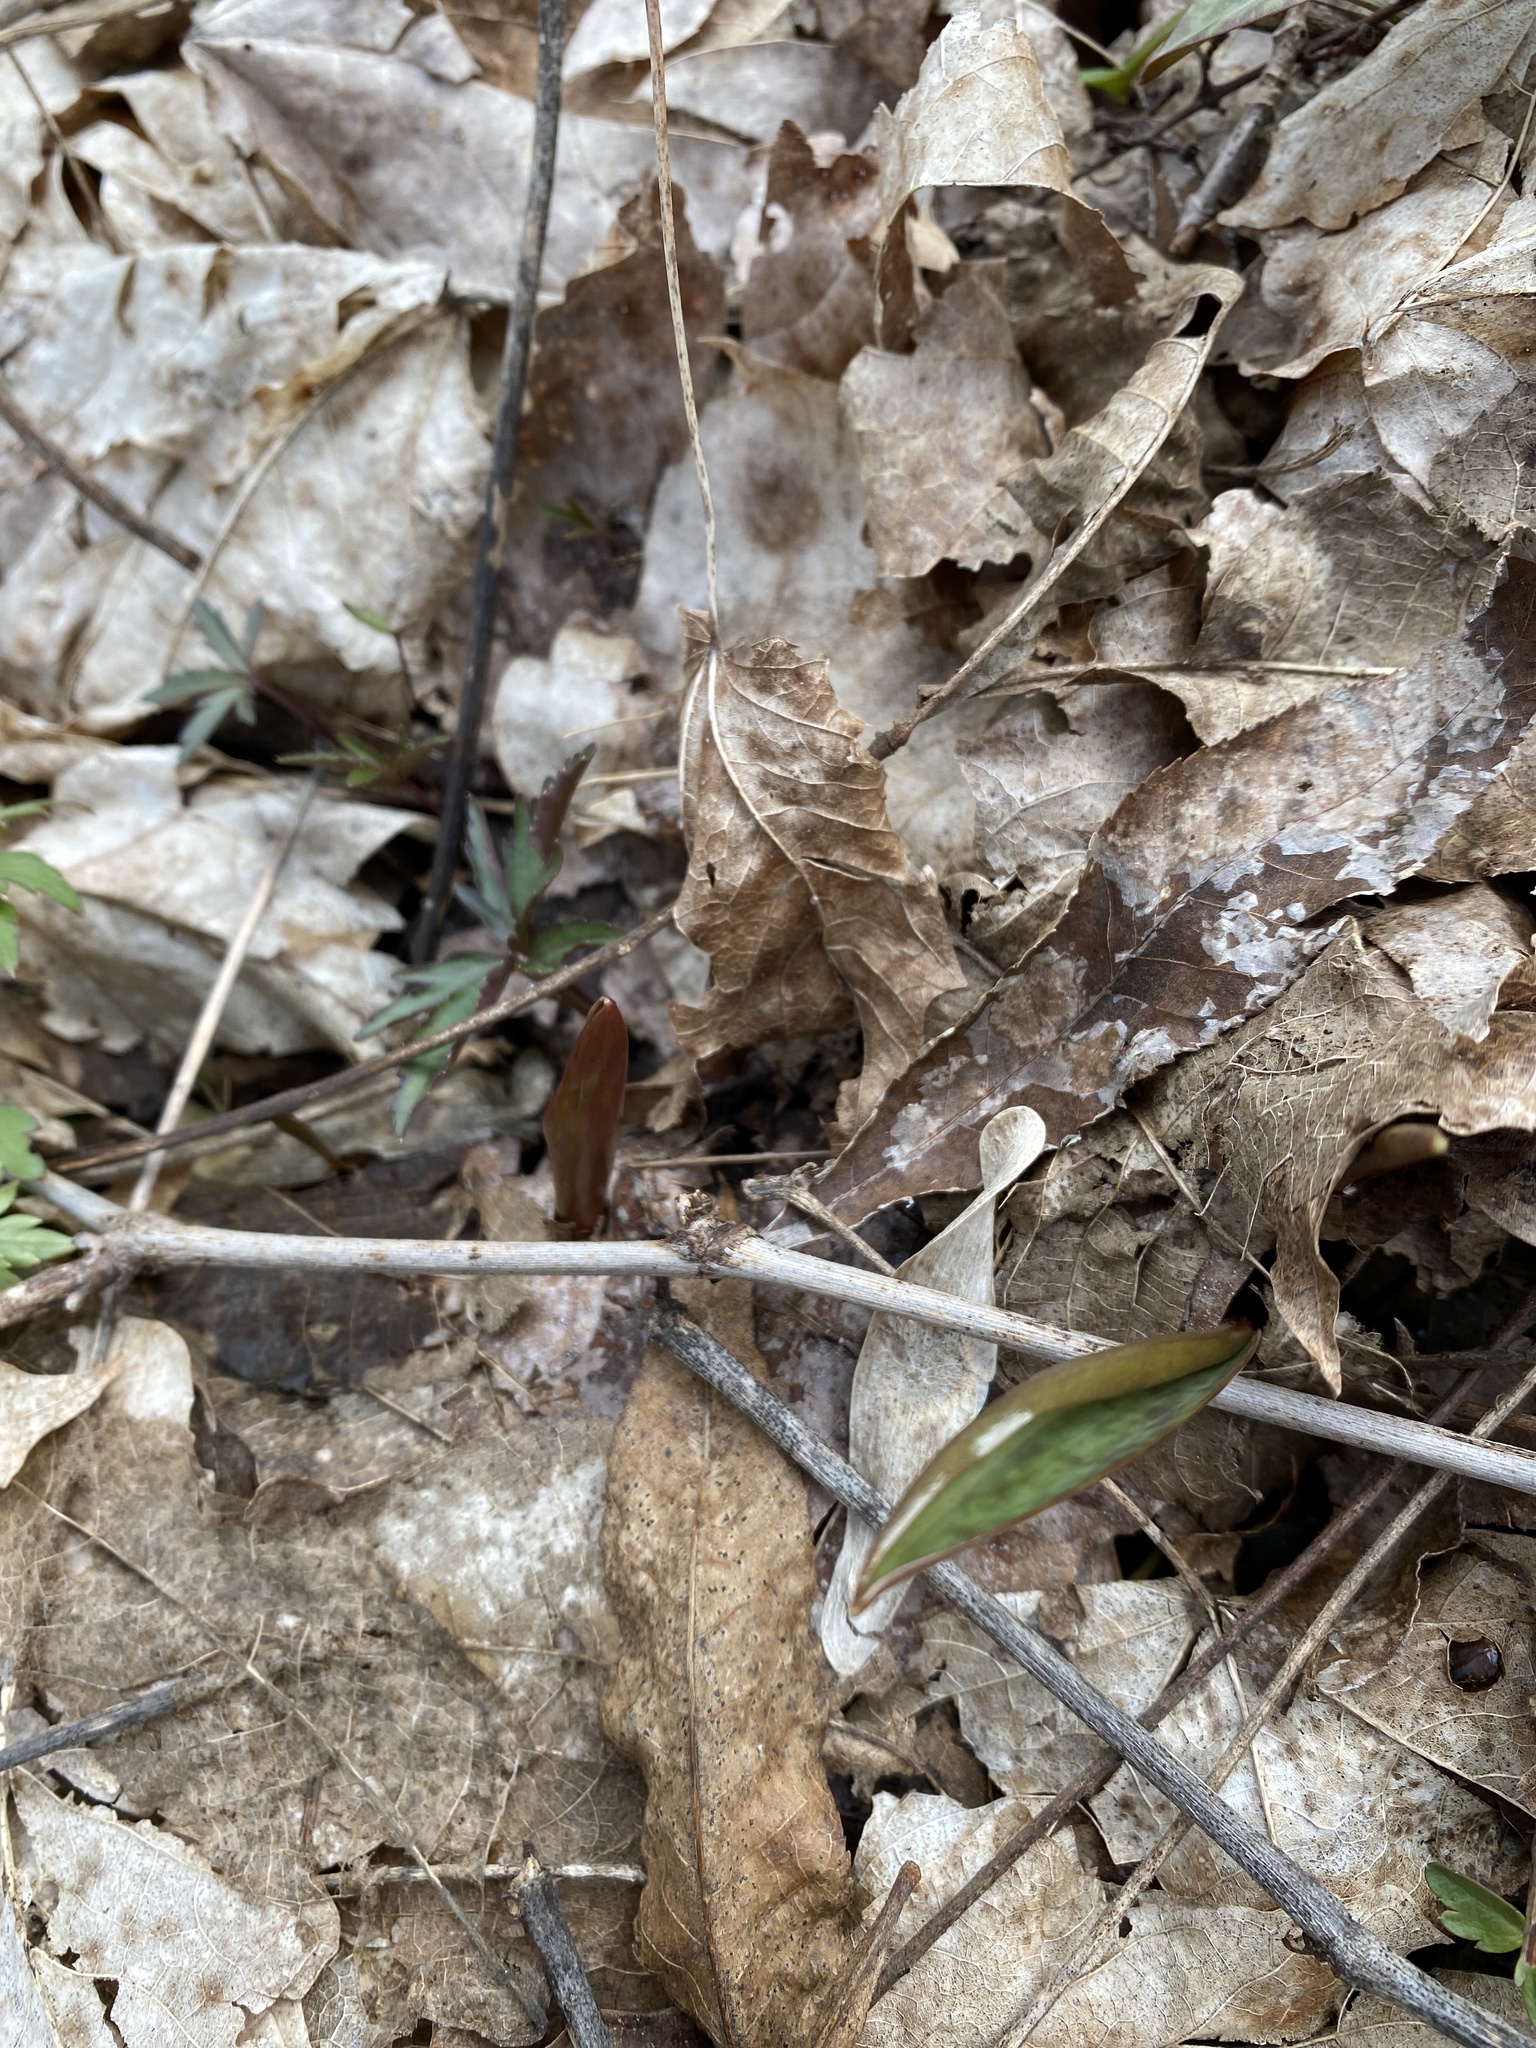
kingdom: Plantae
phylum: Tracheophyta
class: Liliopsida
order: Liliales
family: Liliaceae
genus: Erythronium
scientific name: Erythronium americanum
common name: Yellow adder's-tongue
